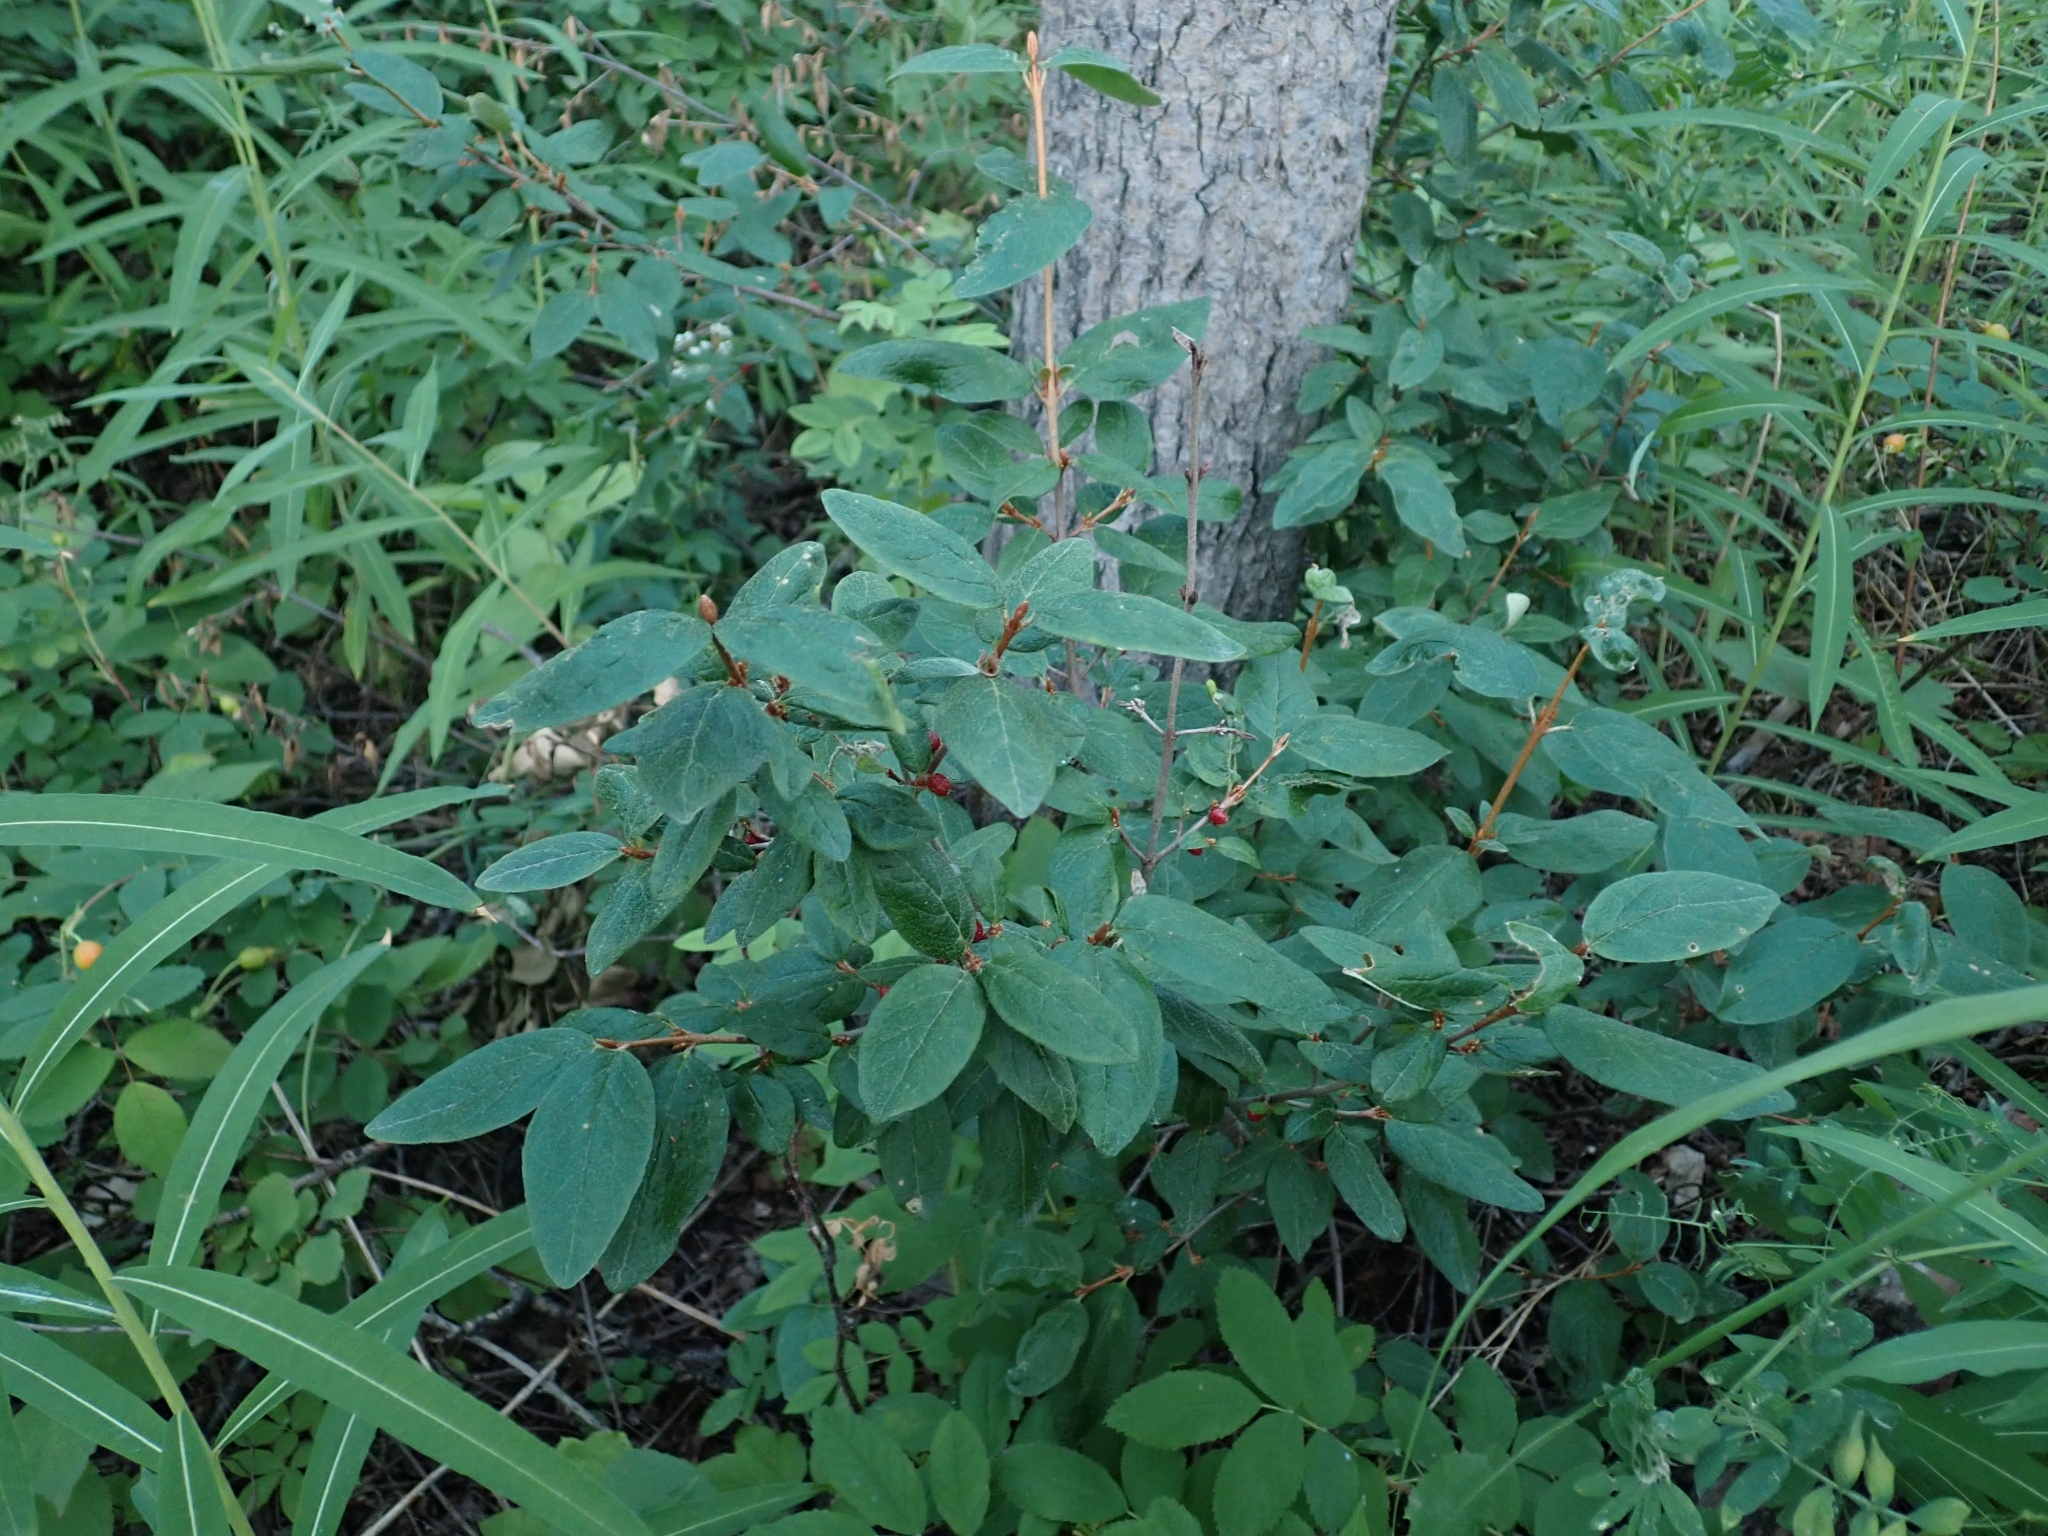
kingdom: Plantae
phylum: Tracheophyta
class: Magnoliopsida
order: Rosales
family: Elaeagnaceae
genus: Shepherdia
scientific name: Shepherdia canadensis
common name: Soapberry
